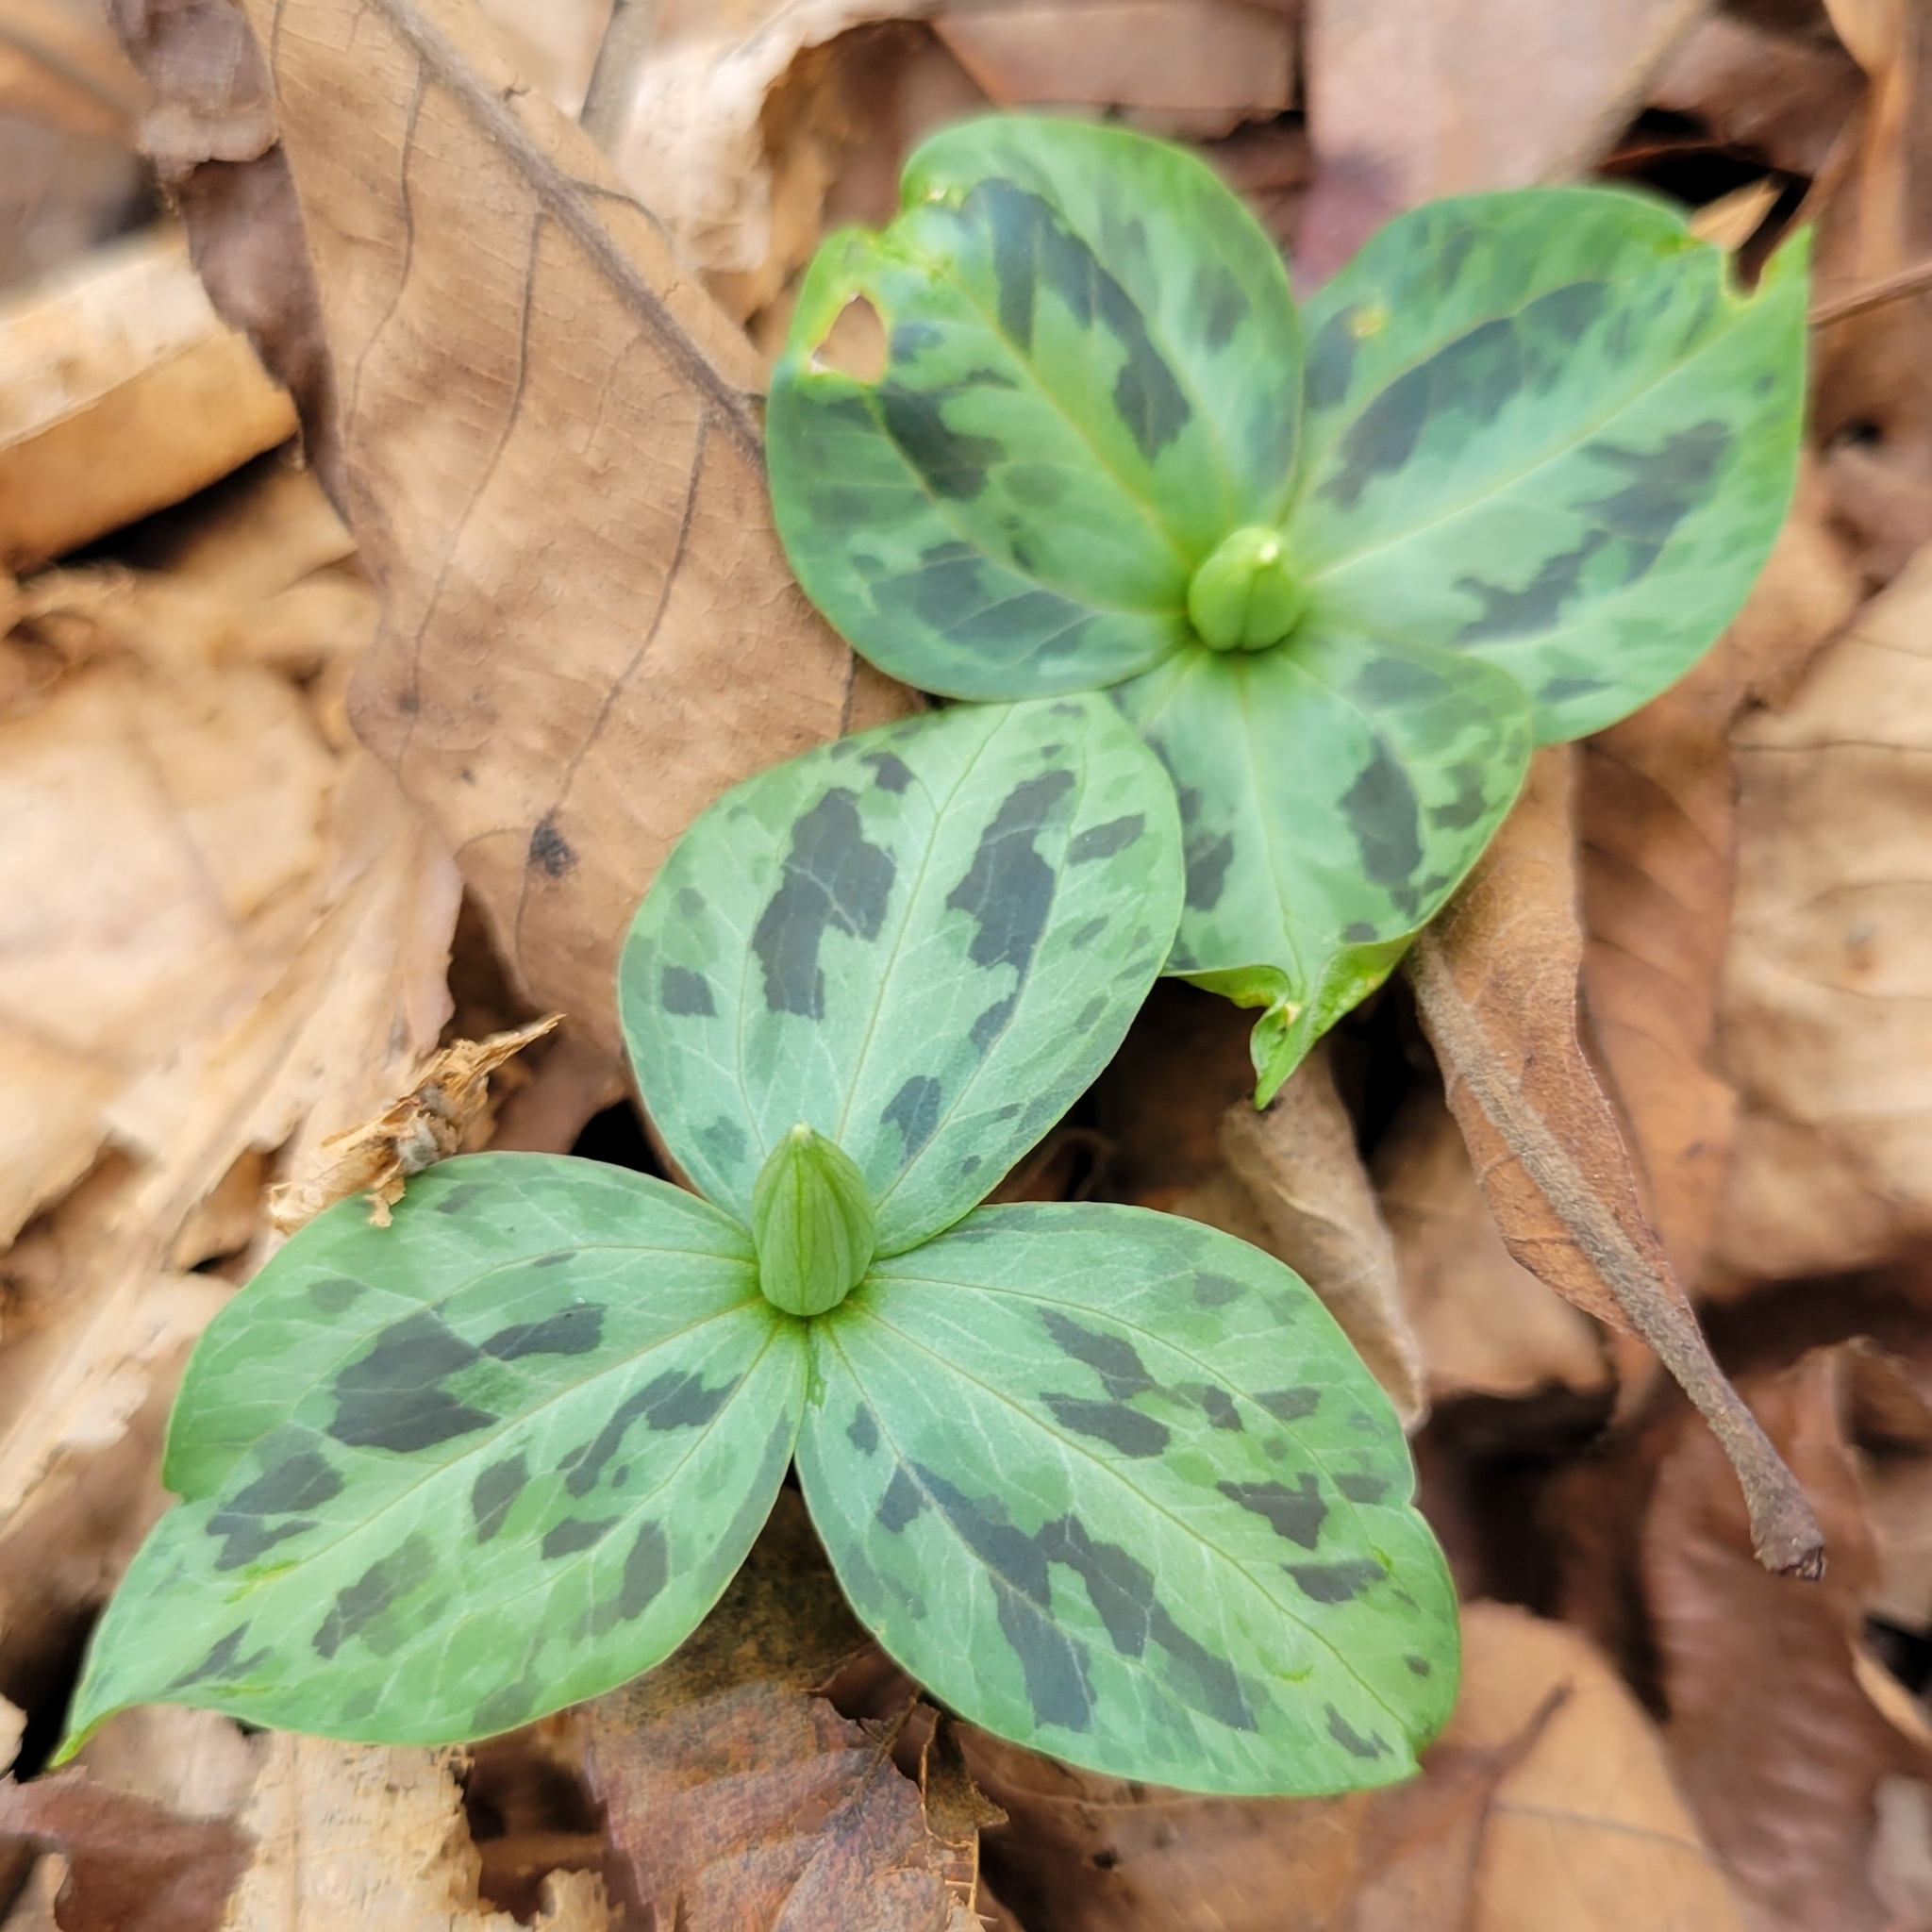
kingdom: Plantae
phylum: Tracheophyta
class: Liliopsida
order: Liliales
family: Melanthiaceae
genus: Trillium
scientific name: Trillium discolor
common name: Faded trillium
